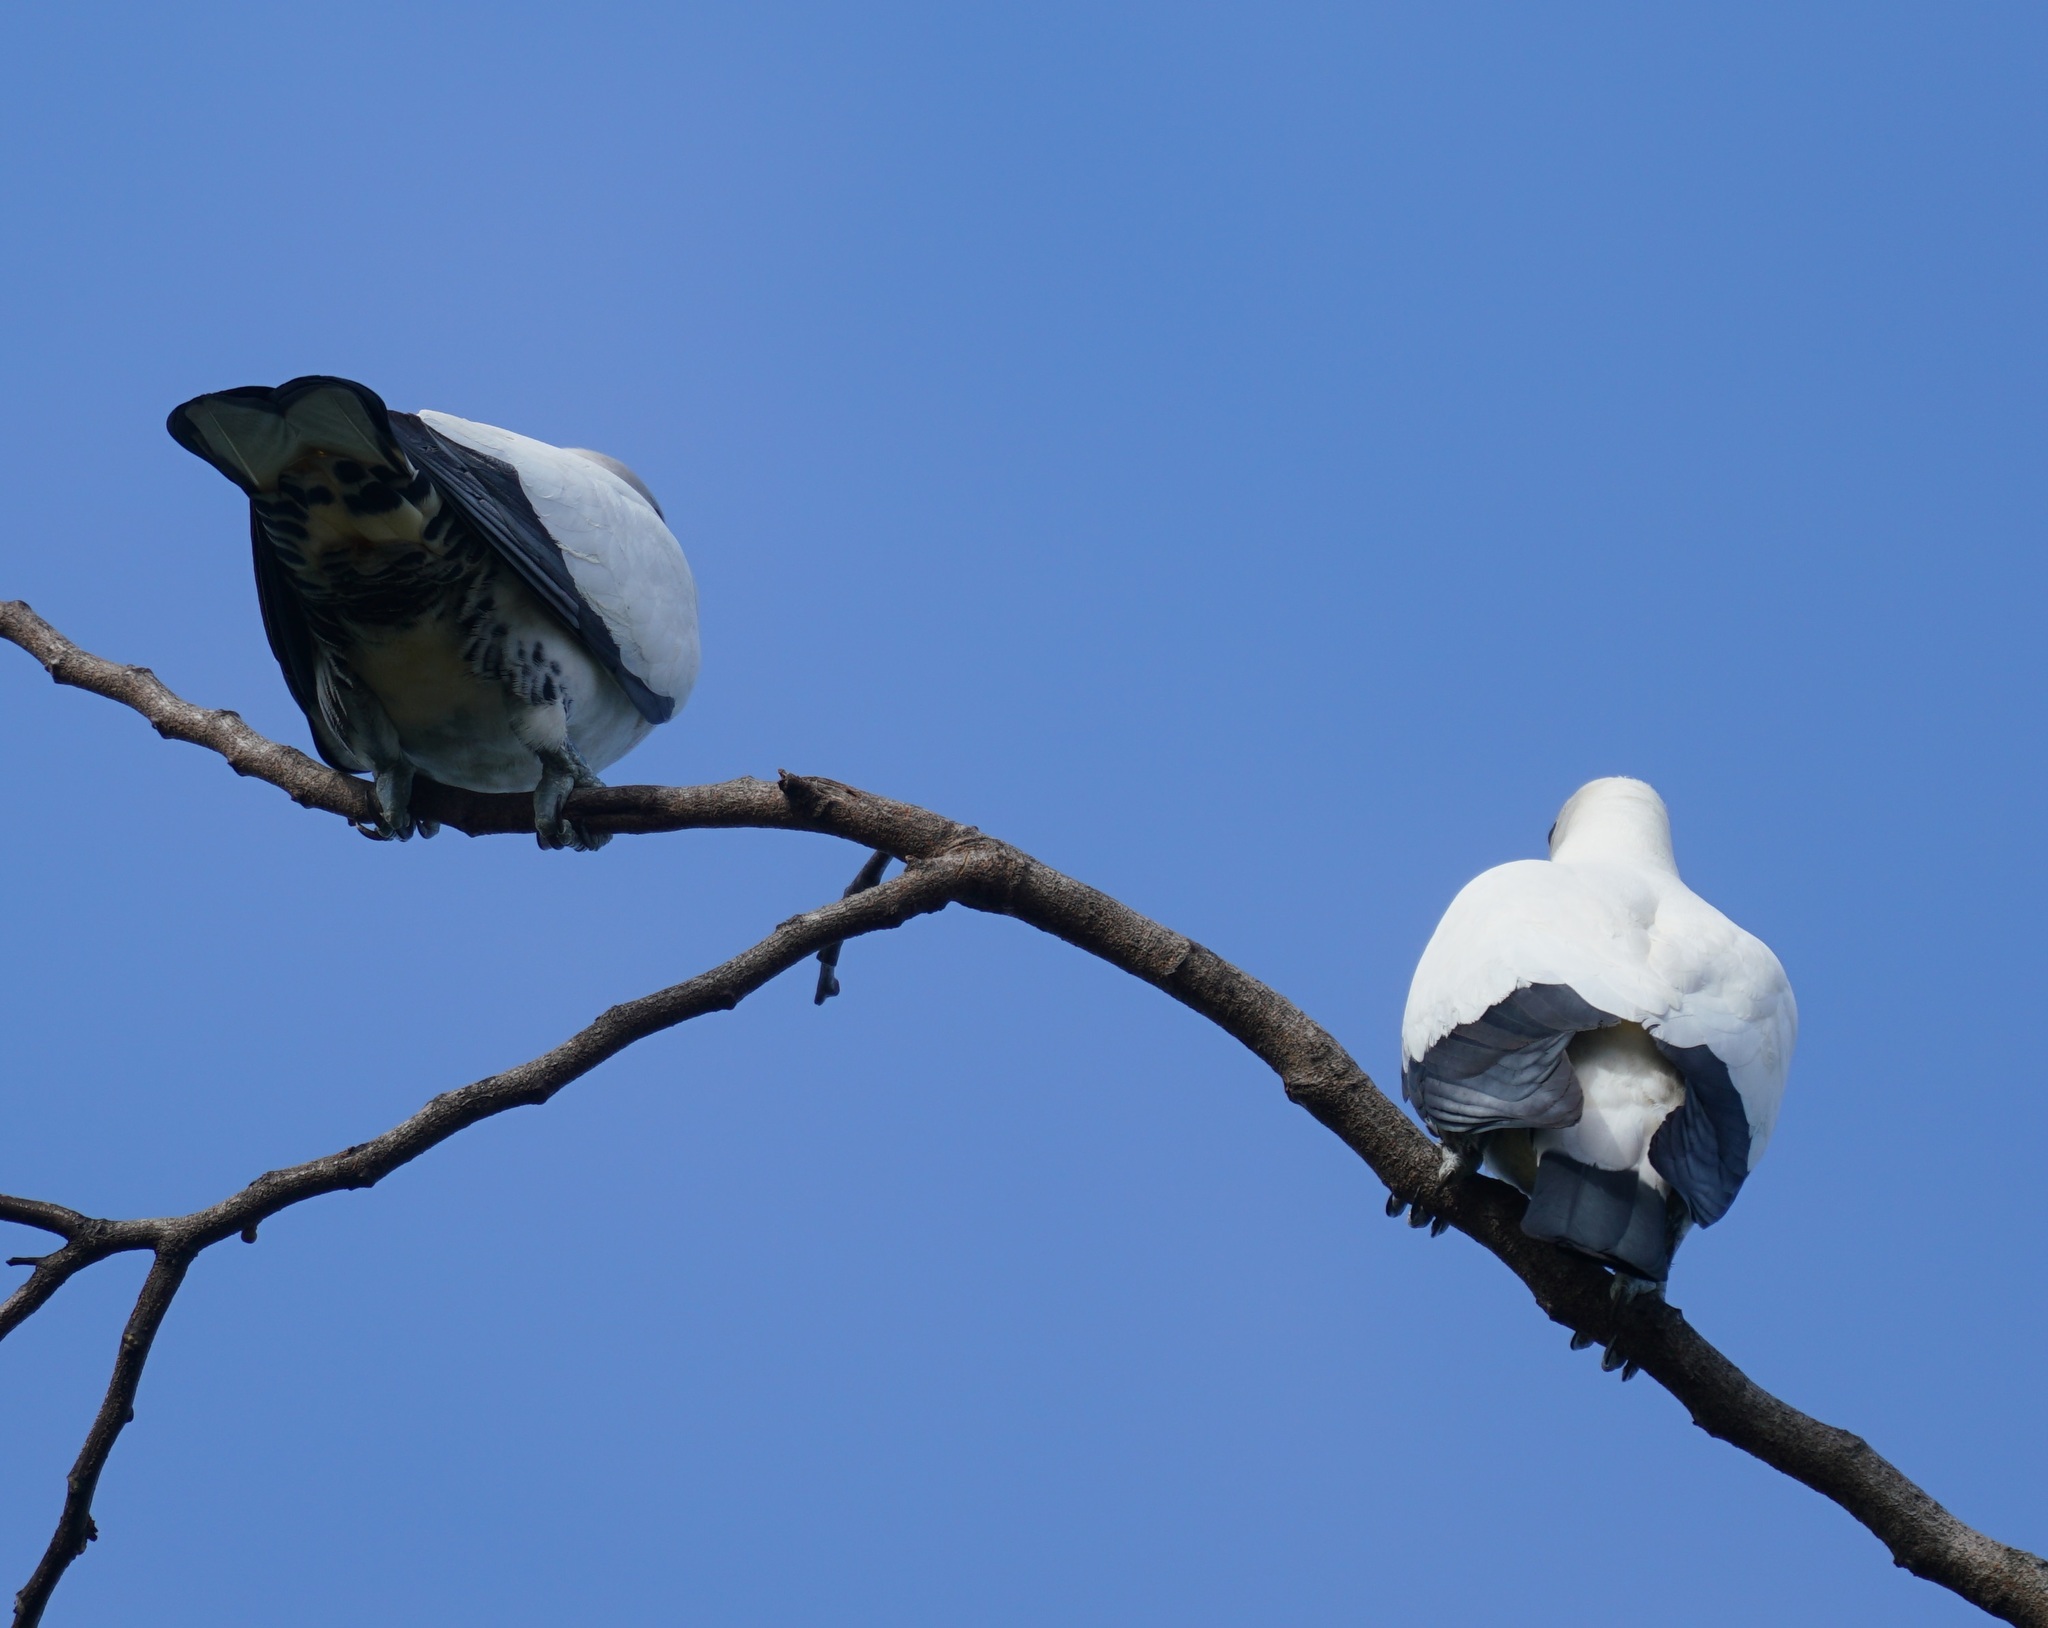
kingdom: Animalia
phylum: Chordata
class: Aves
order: Columbiformes
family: Columbidae
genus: Ducula
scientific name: Ducula spilorrhoa
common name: Torresian imperial pigeon
